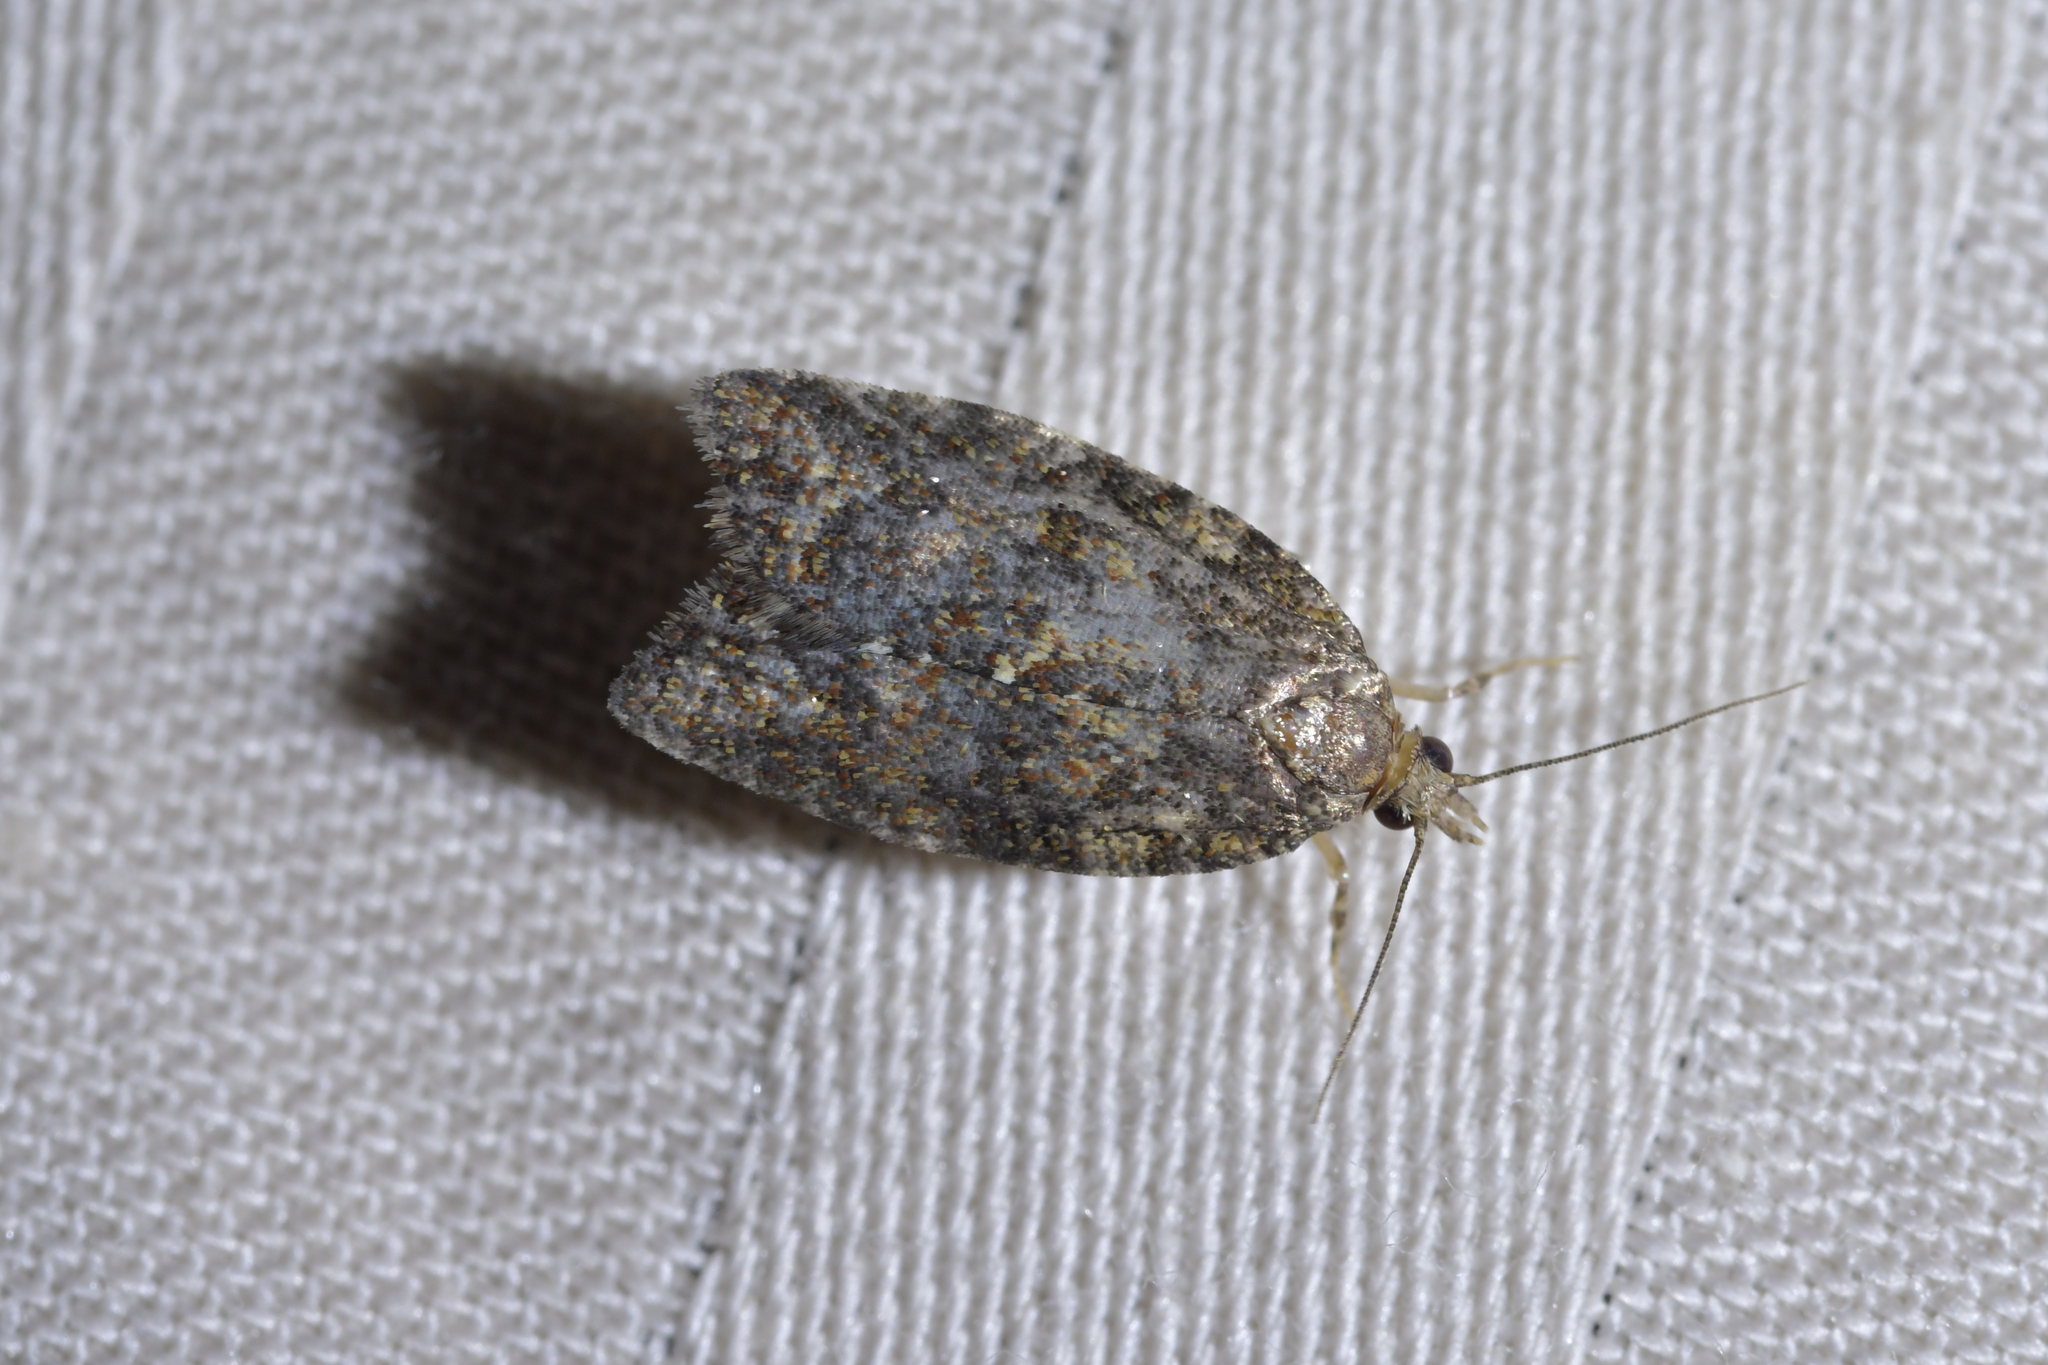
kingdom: Animalia
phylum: Arthropoda
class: Insecta
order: Lepidoptera
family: Tortricidae
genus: Capua
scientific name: Capua intractana
